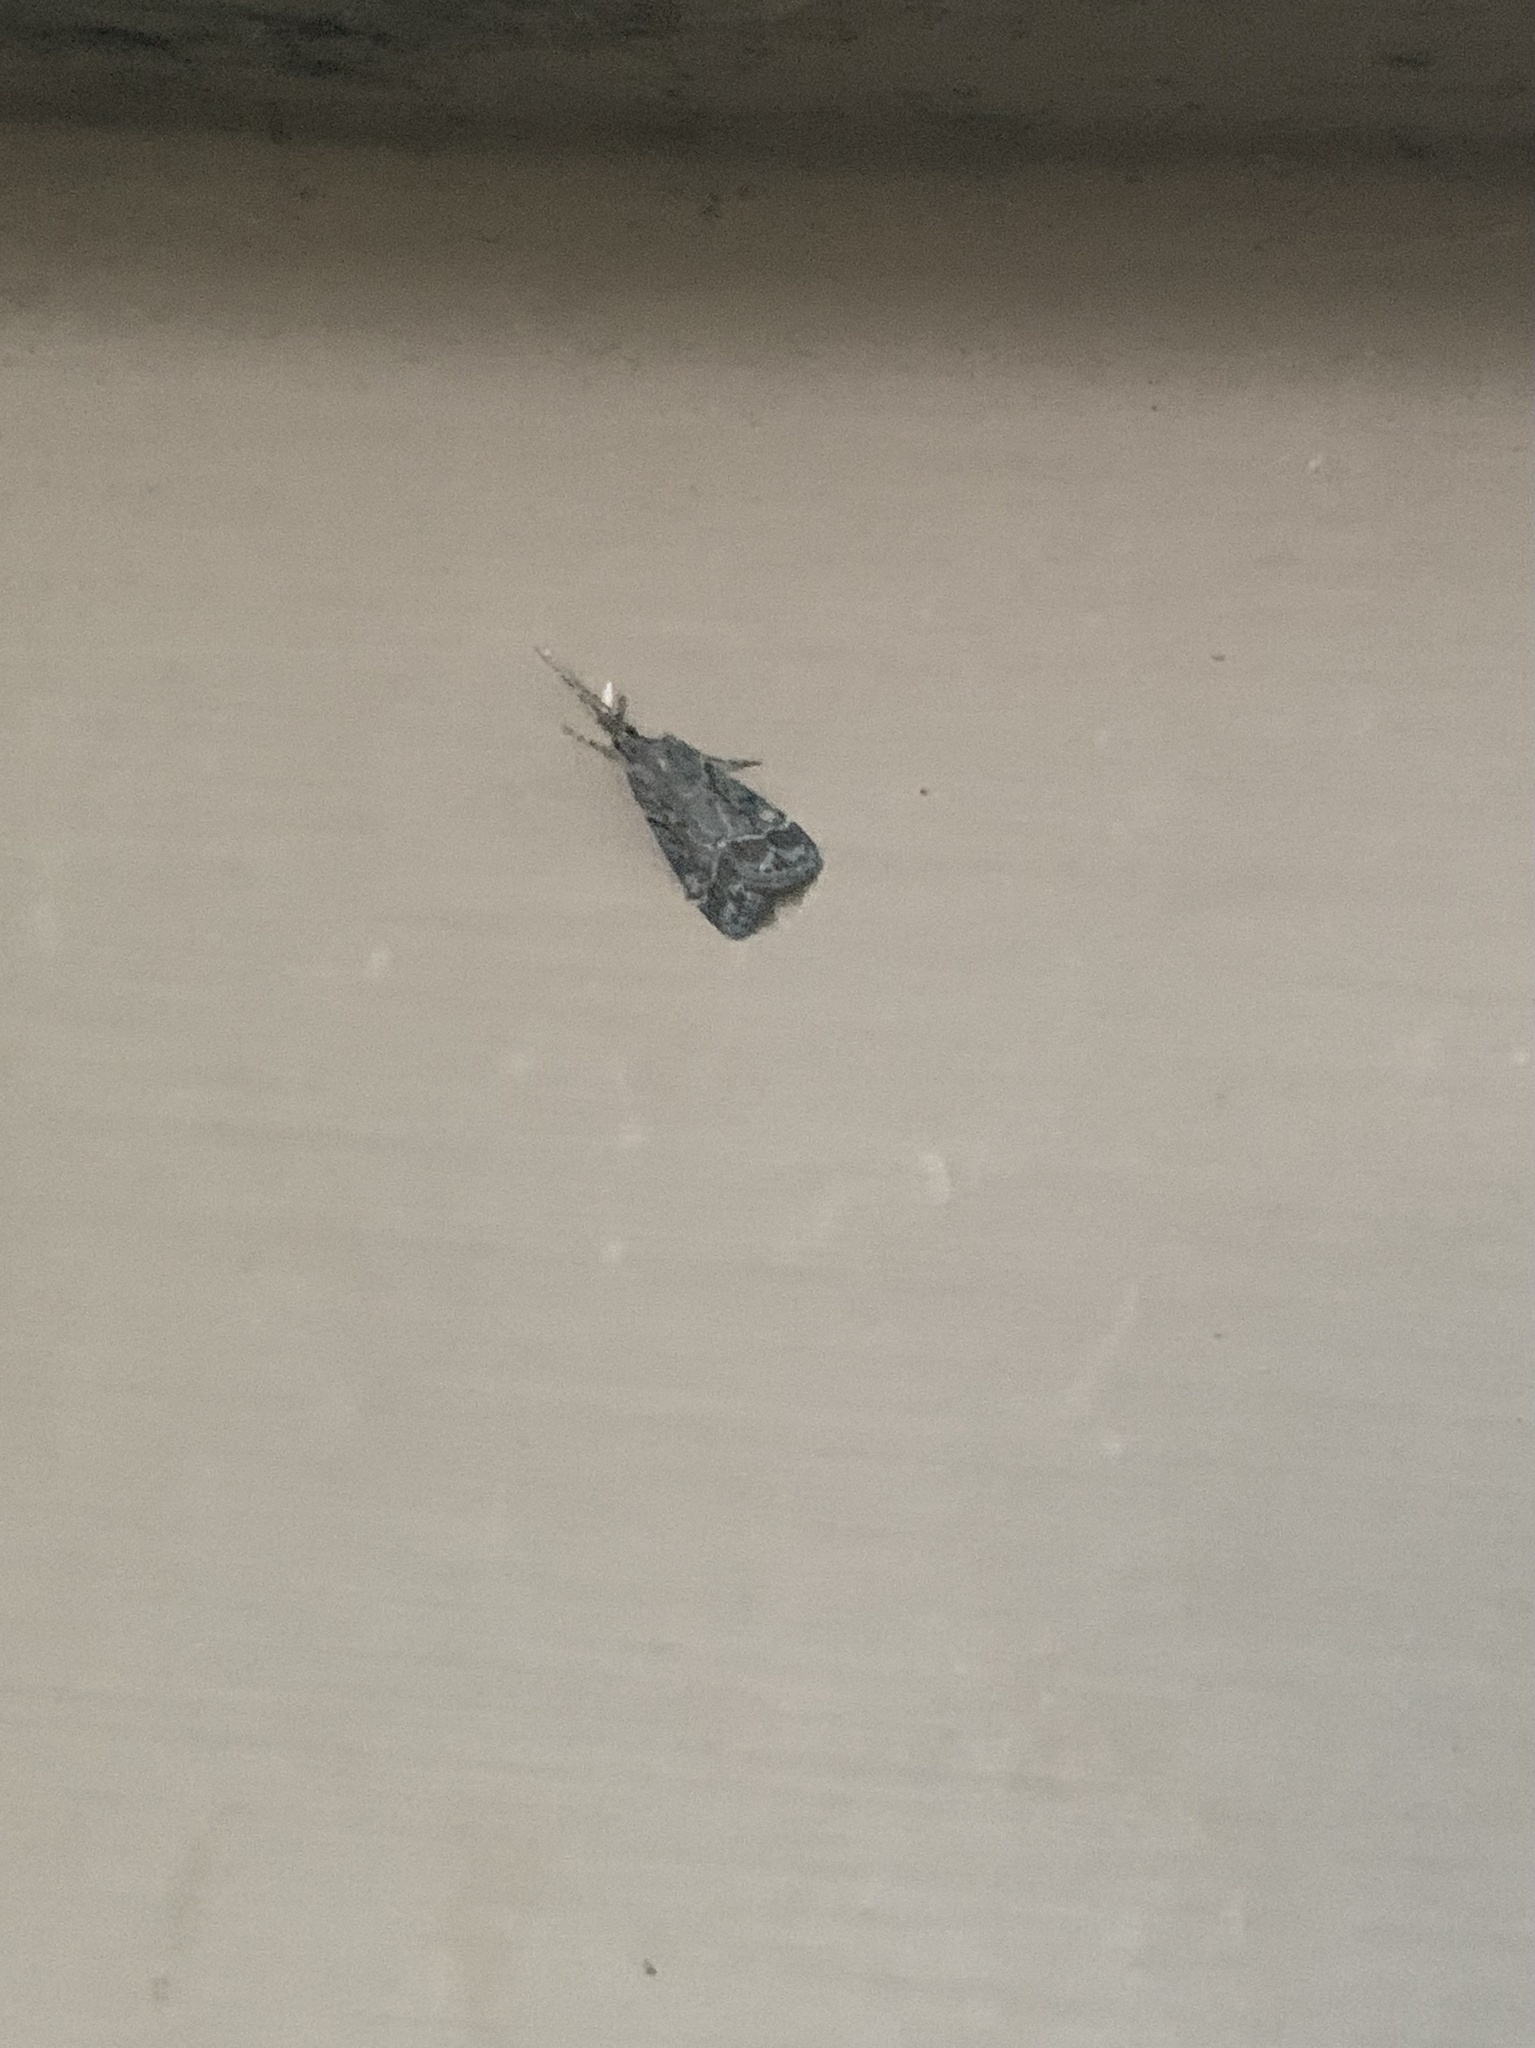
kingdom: Animalia
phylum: Arthropoda
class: Insecta
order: Lepidoptera
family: Crambidae
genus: Eudonia
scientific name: Eudonia rectilinea
